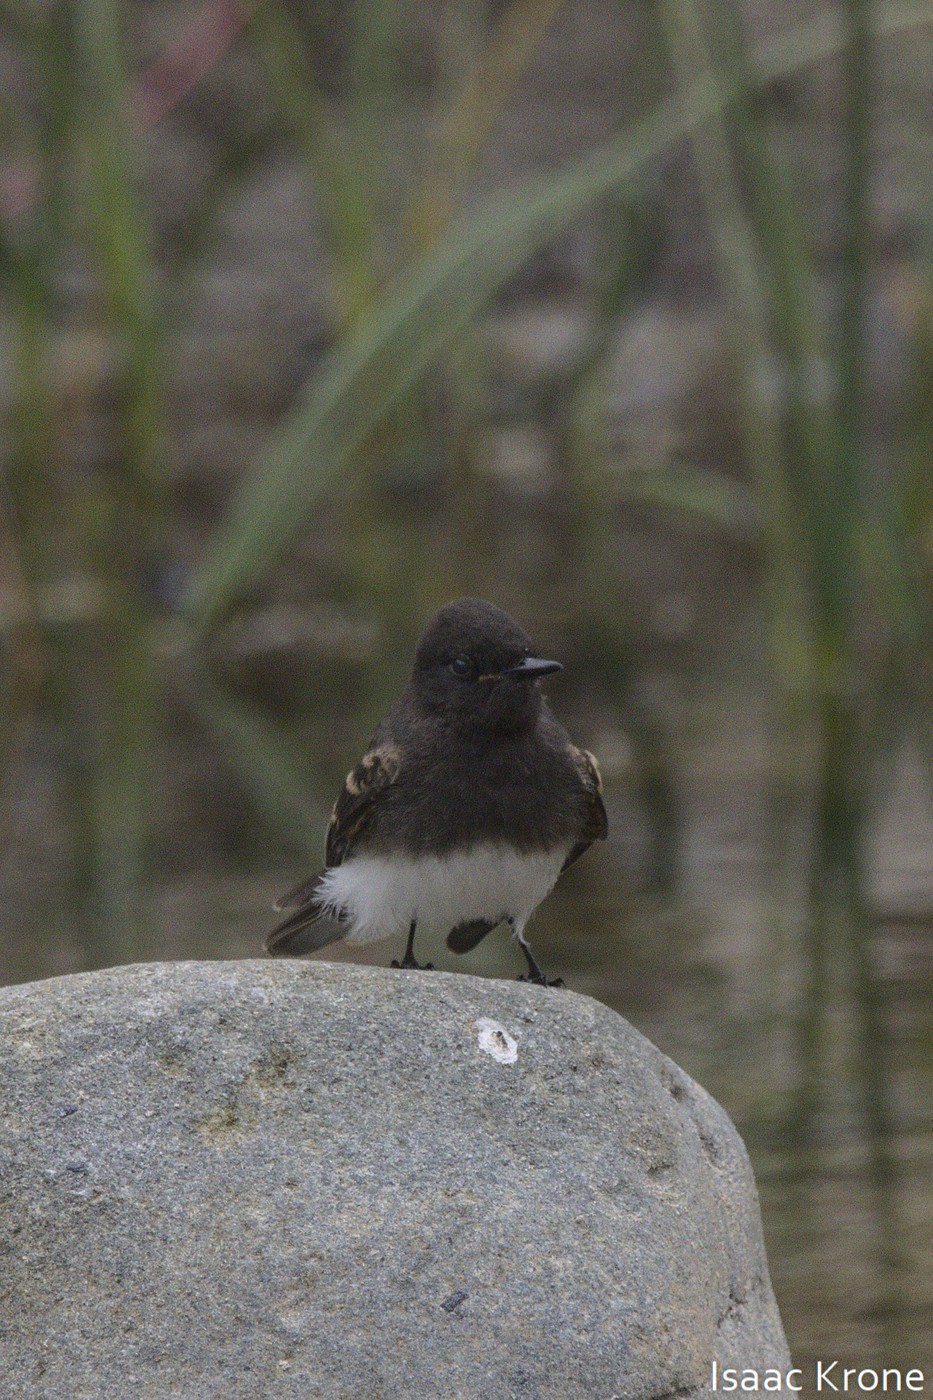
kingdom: Animalia
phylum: Chordata
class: Aves
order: Passeriformes
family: Tyrannidae
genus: Sayornis
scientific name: Sayornis nigricans
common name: Black phoebe
